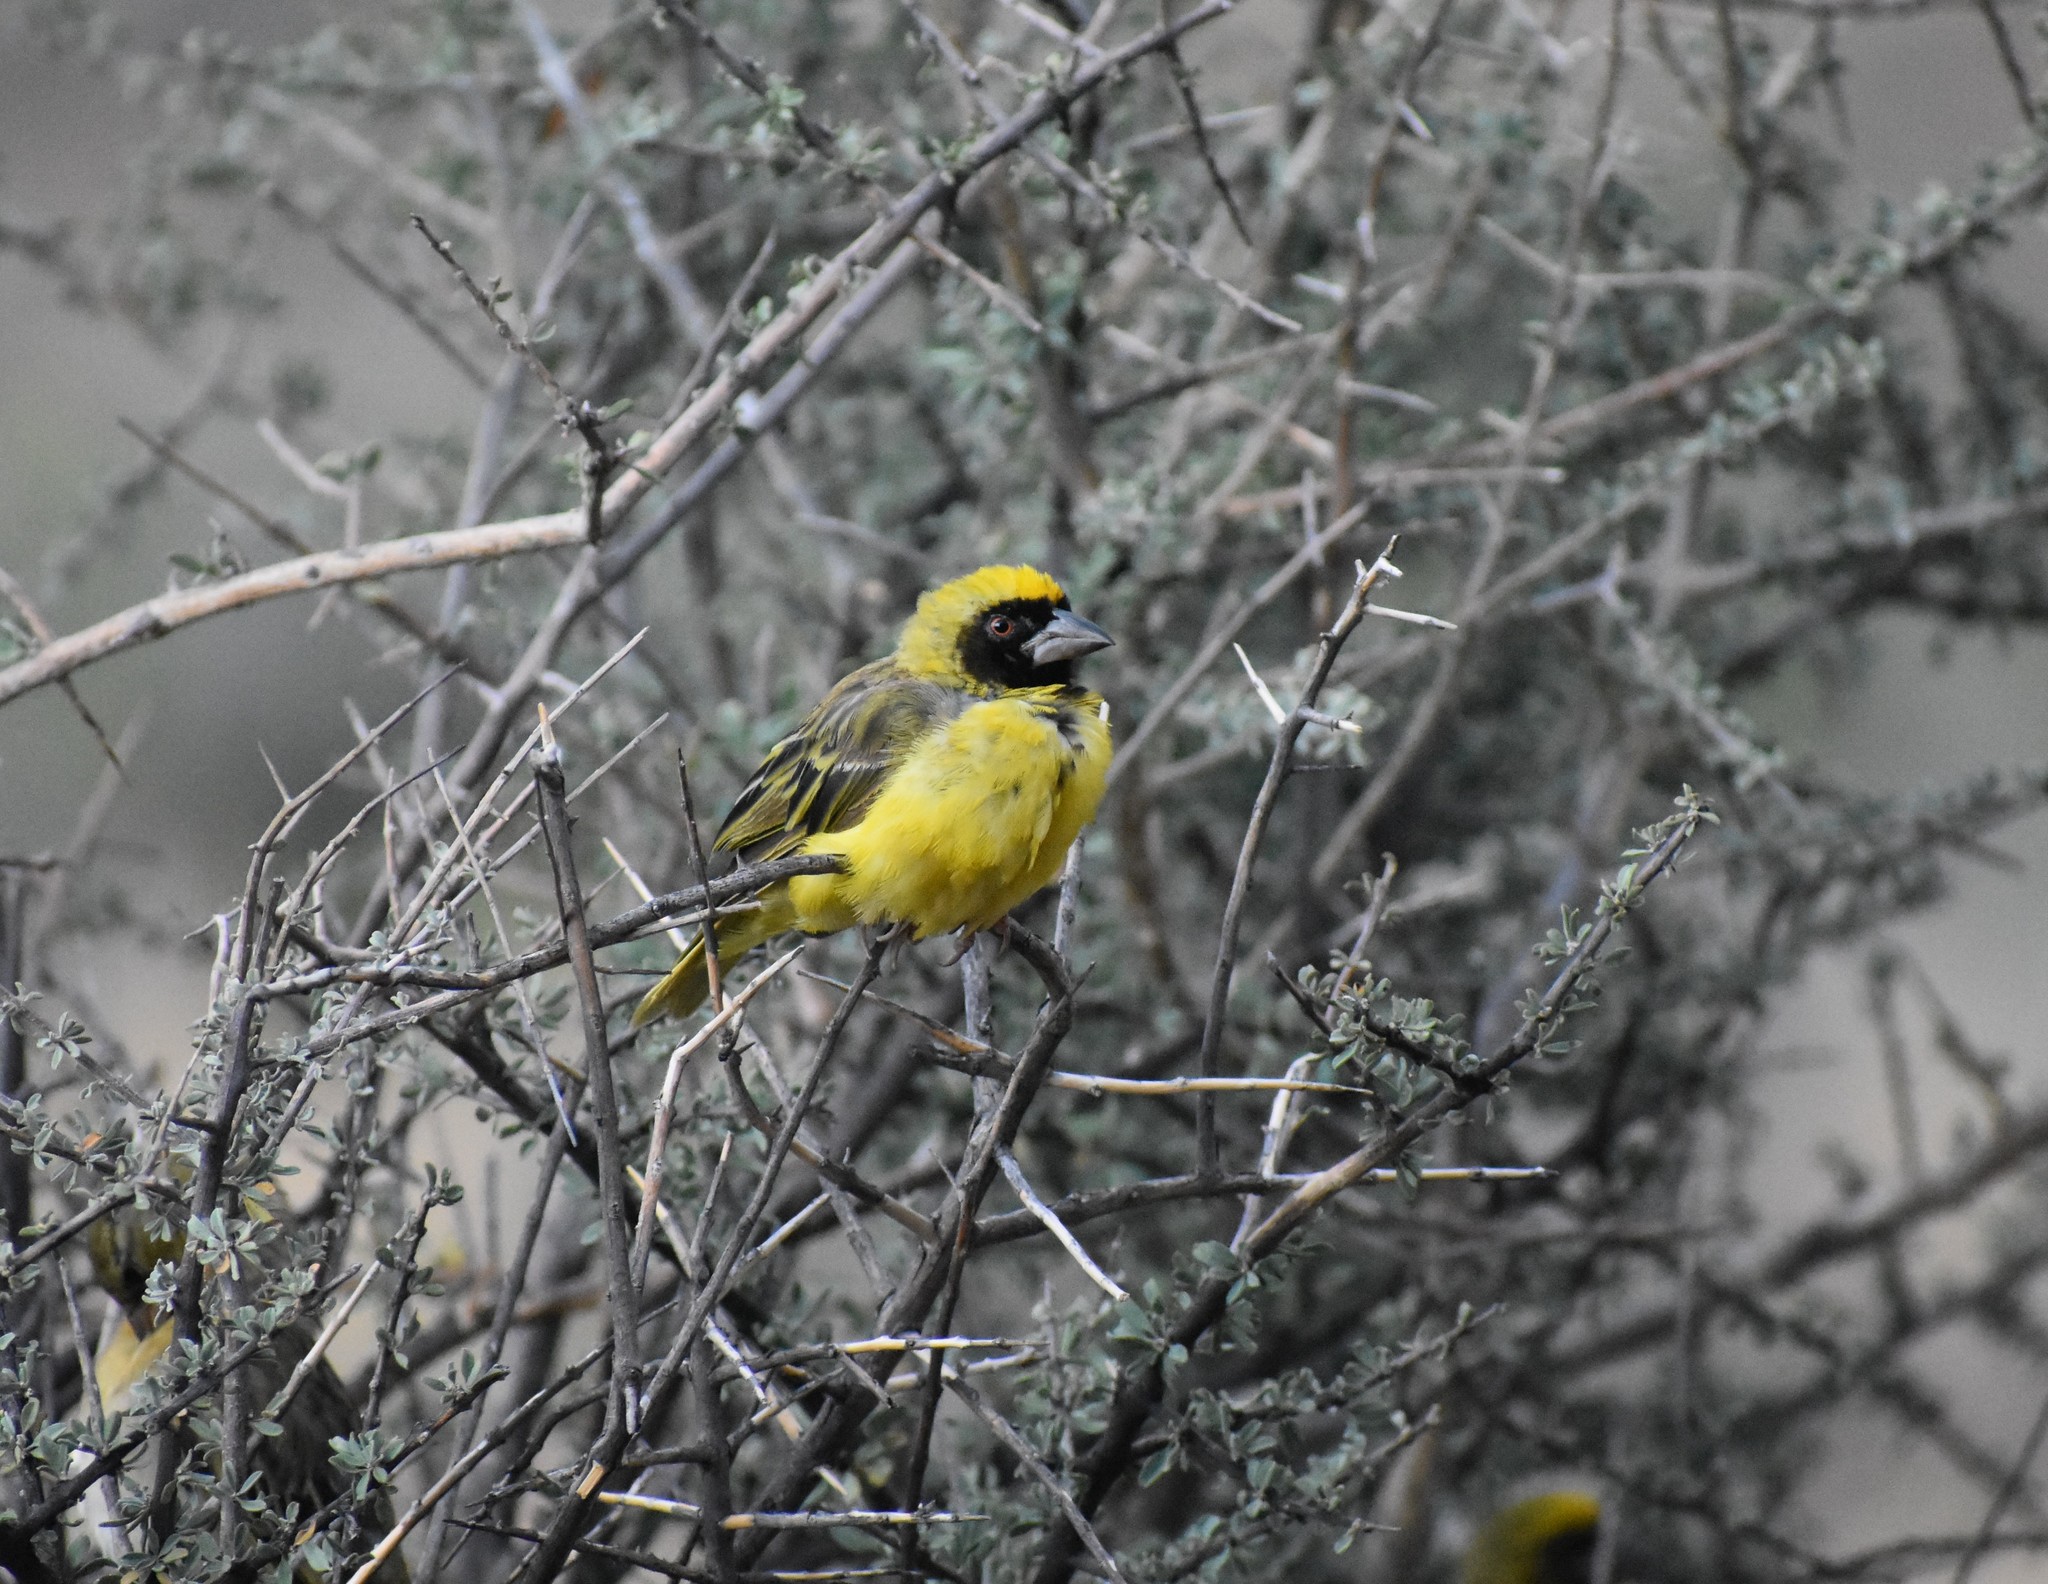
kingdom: Animalia
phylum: Chordata
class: Aves
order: Passeriformes
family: Ploceidae
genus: Ploceus
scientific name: Ploceus velatus
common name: Southern masked weaver
